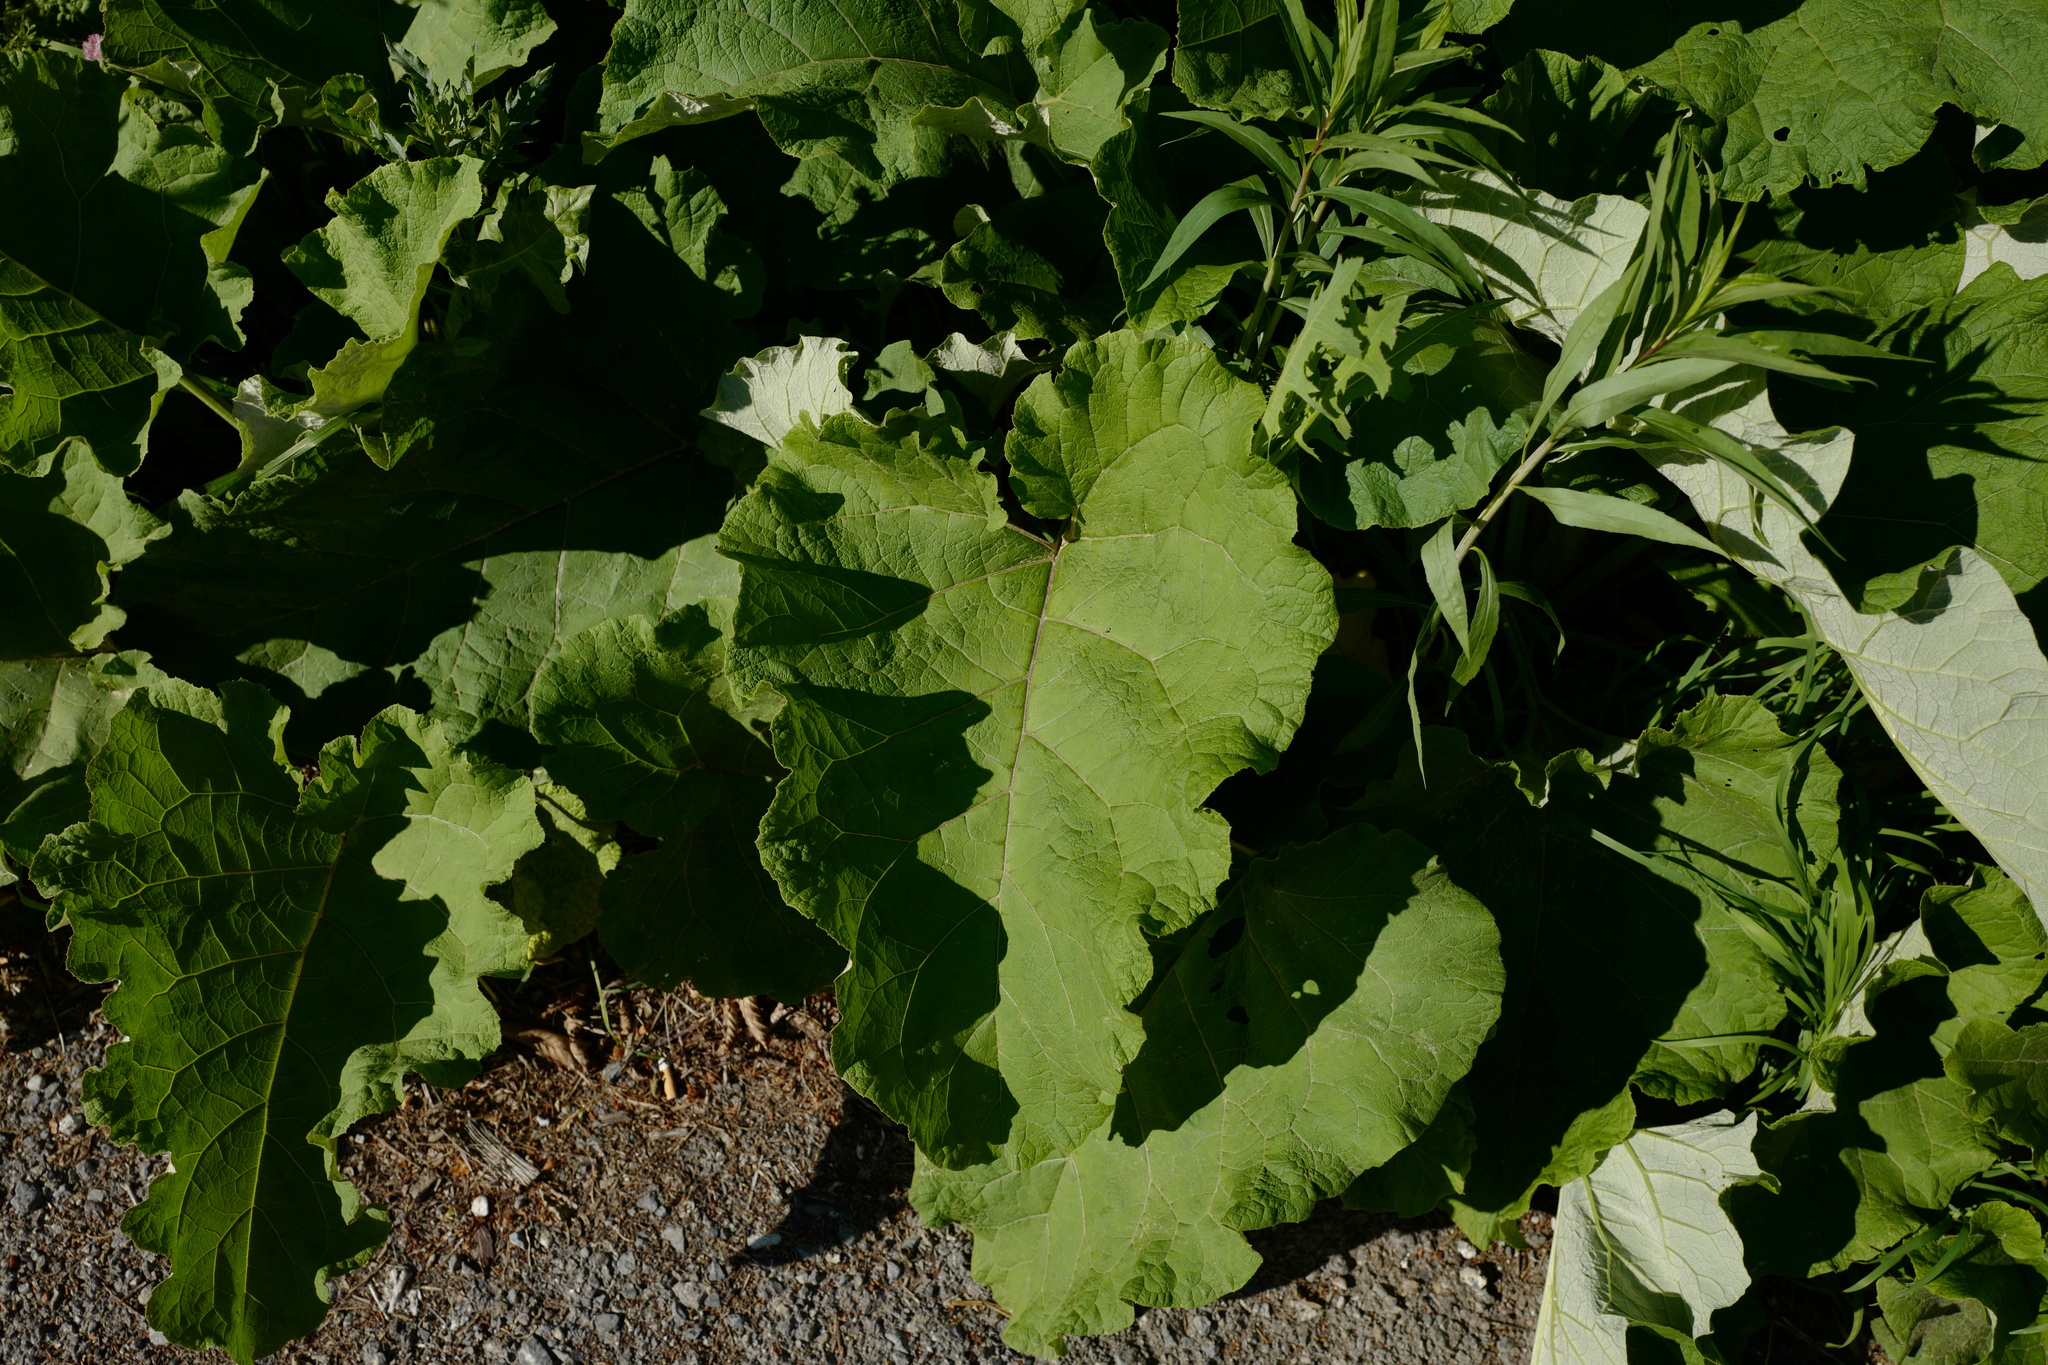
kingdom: Plantae
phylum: Tracheophyta
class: Magnoliopsida
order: Asterales
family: Asteraceae
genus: Arctium
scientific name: Arctium
